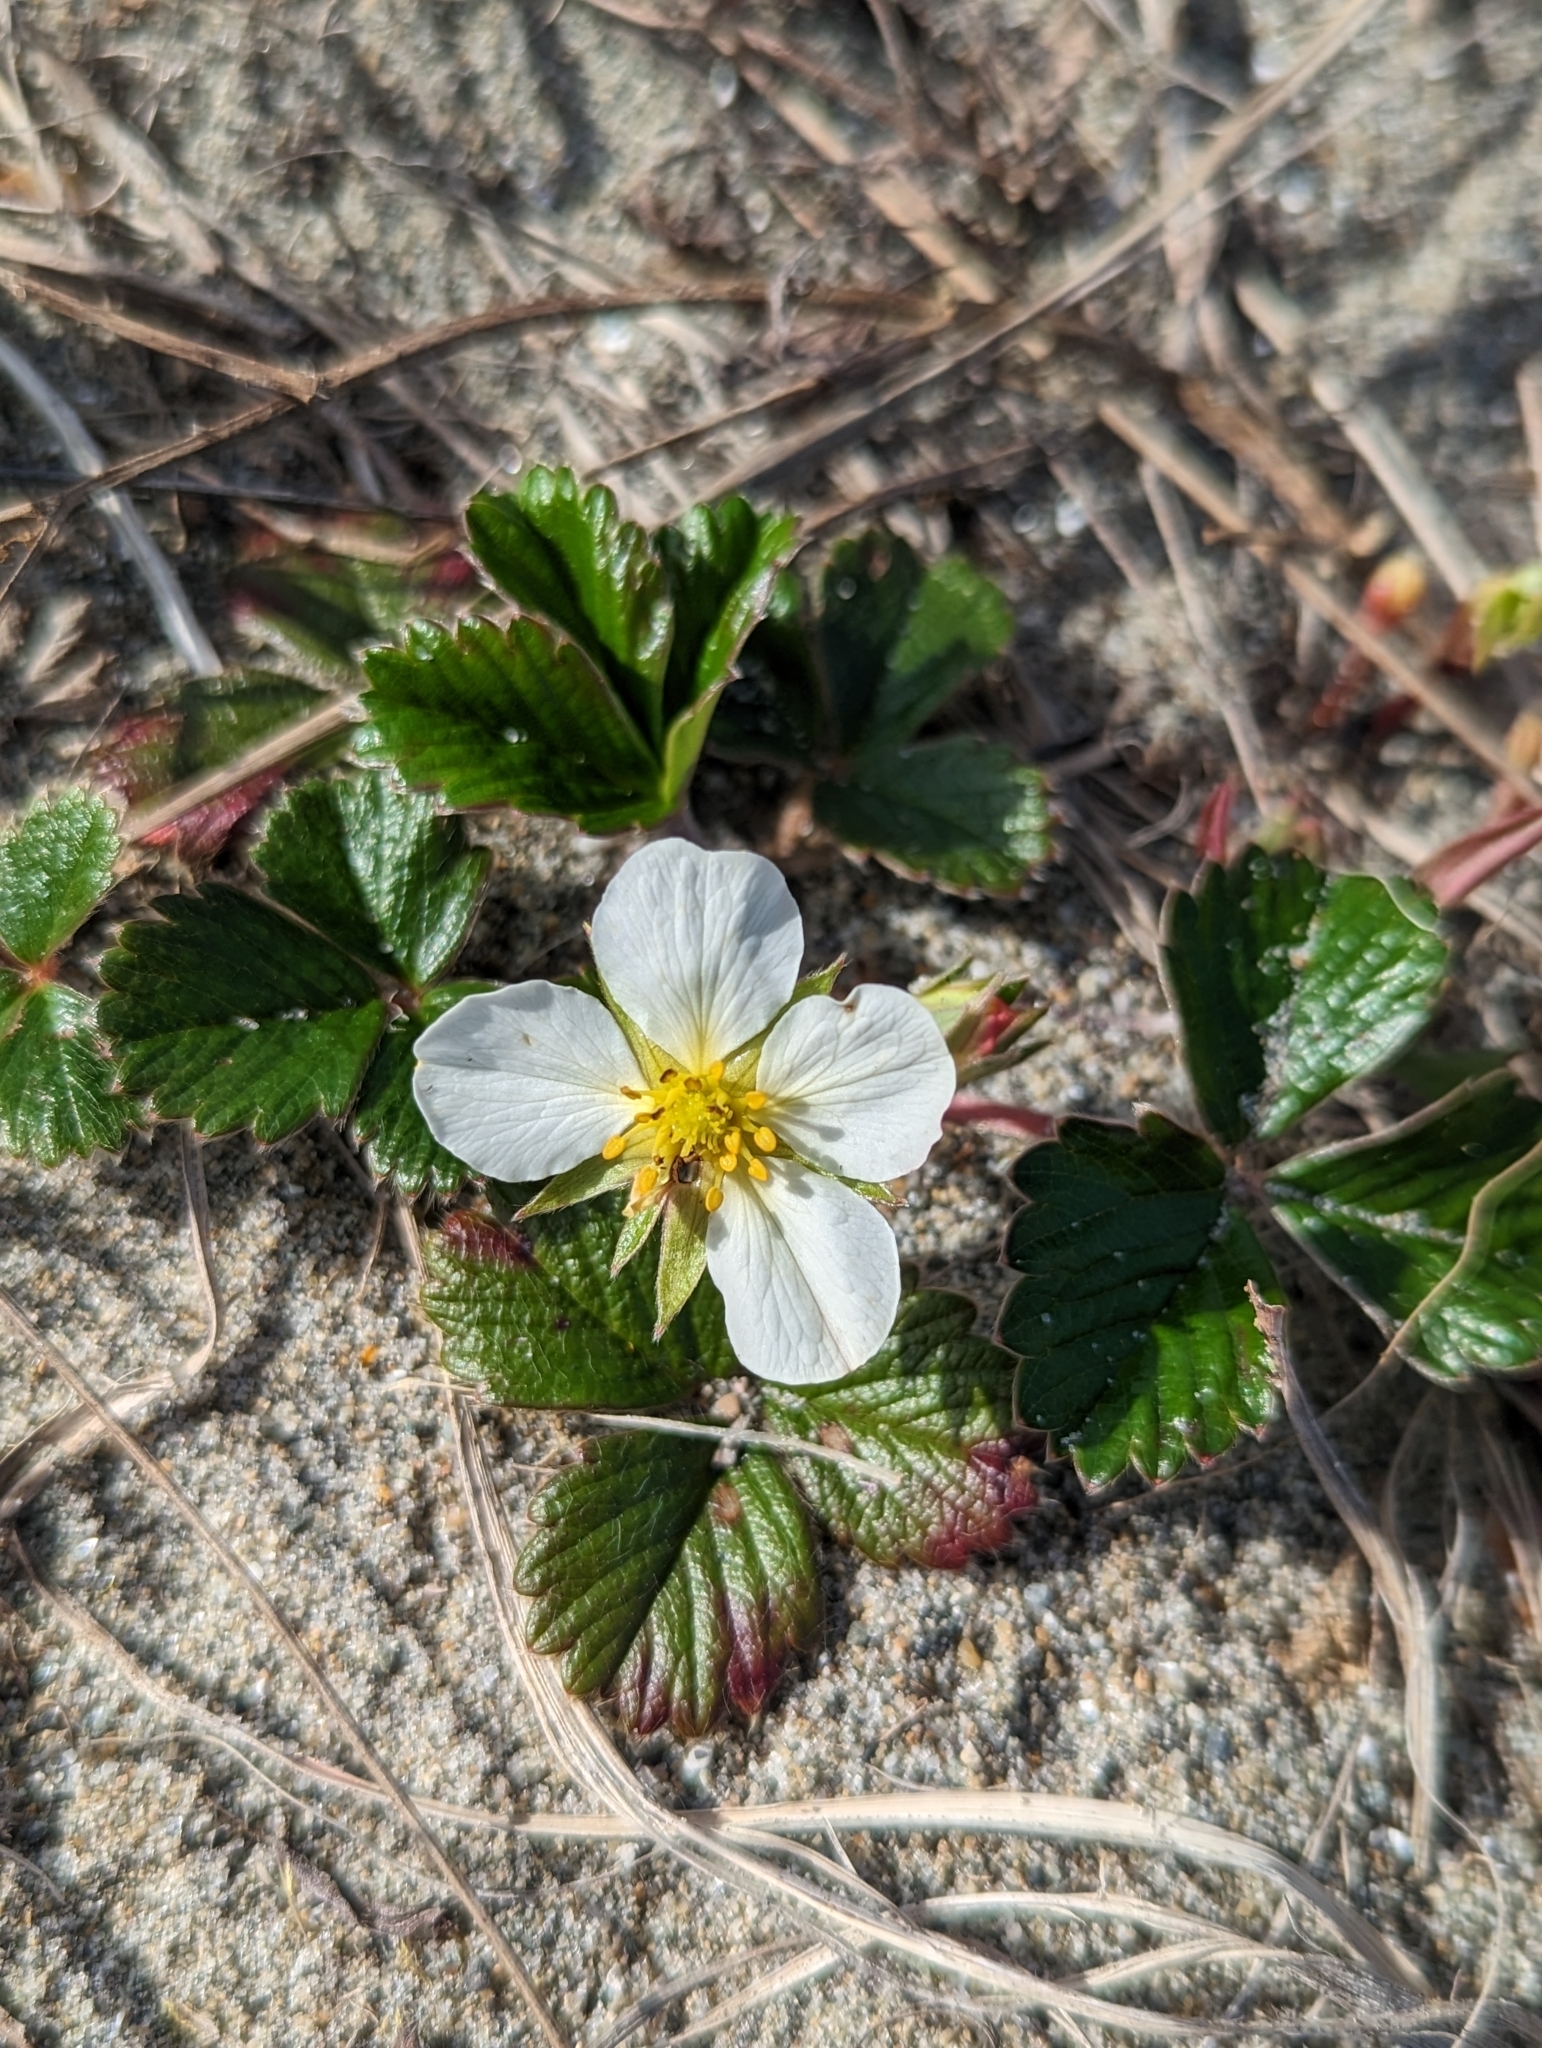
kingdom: Plantae
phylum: Tracheophyta
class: Magnoliopsida
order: Rosales
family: Rosaceae
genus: Fragaria
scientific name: Fragaria chiloensis
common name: Beach strawberry
